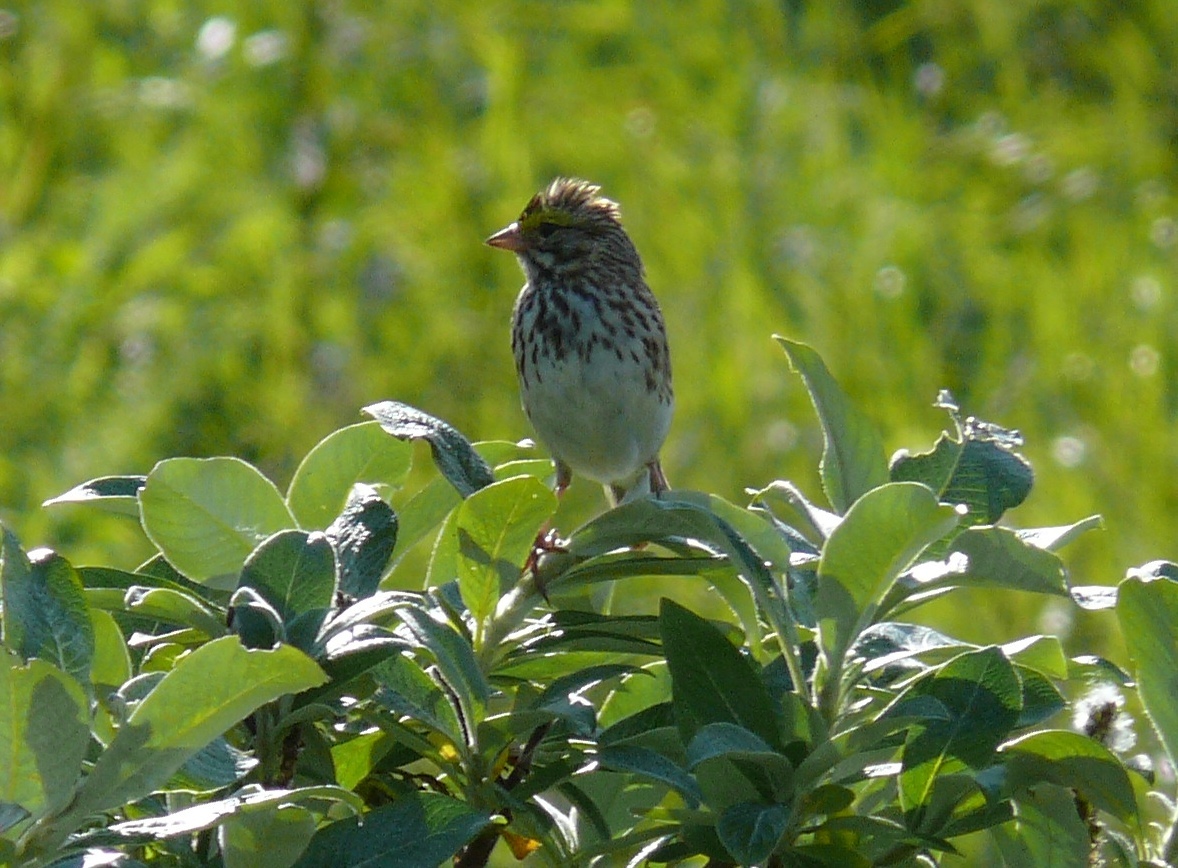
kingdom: Animalia
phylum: Chordata
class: Aves
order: Passeriformes
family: Passerellidae
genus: Passerculus
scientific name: Passerculus sandwichensis
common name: Savannah sparrow
